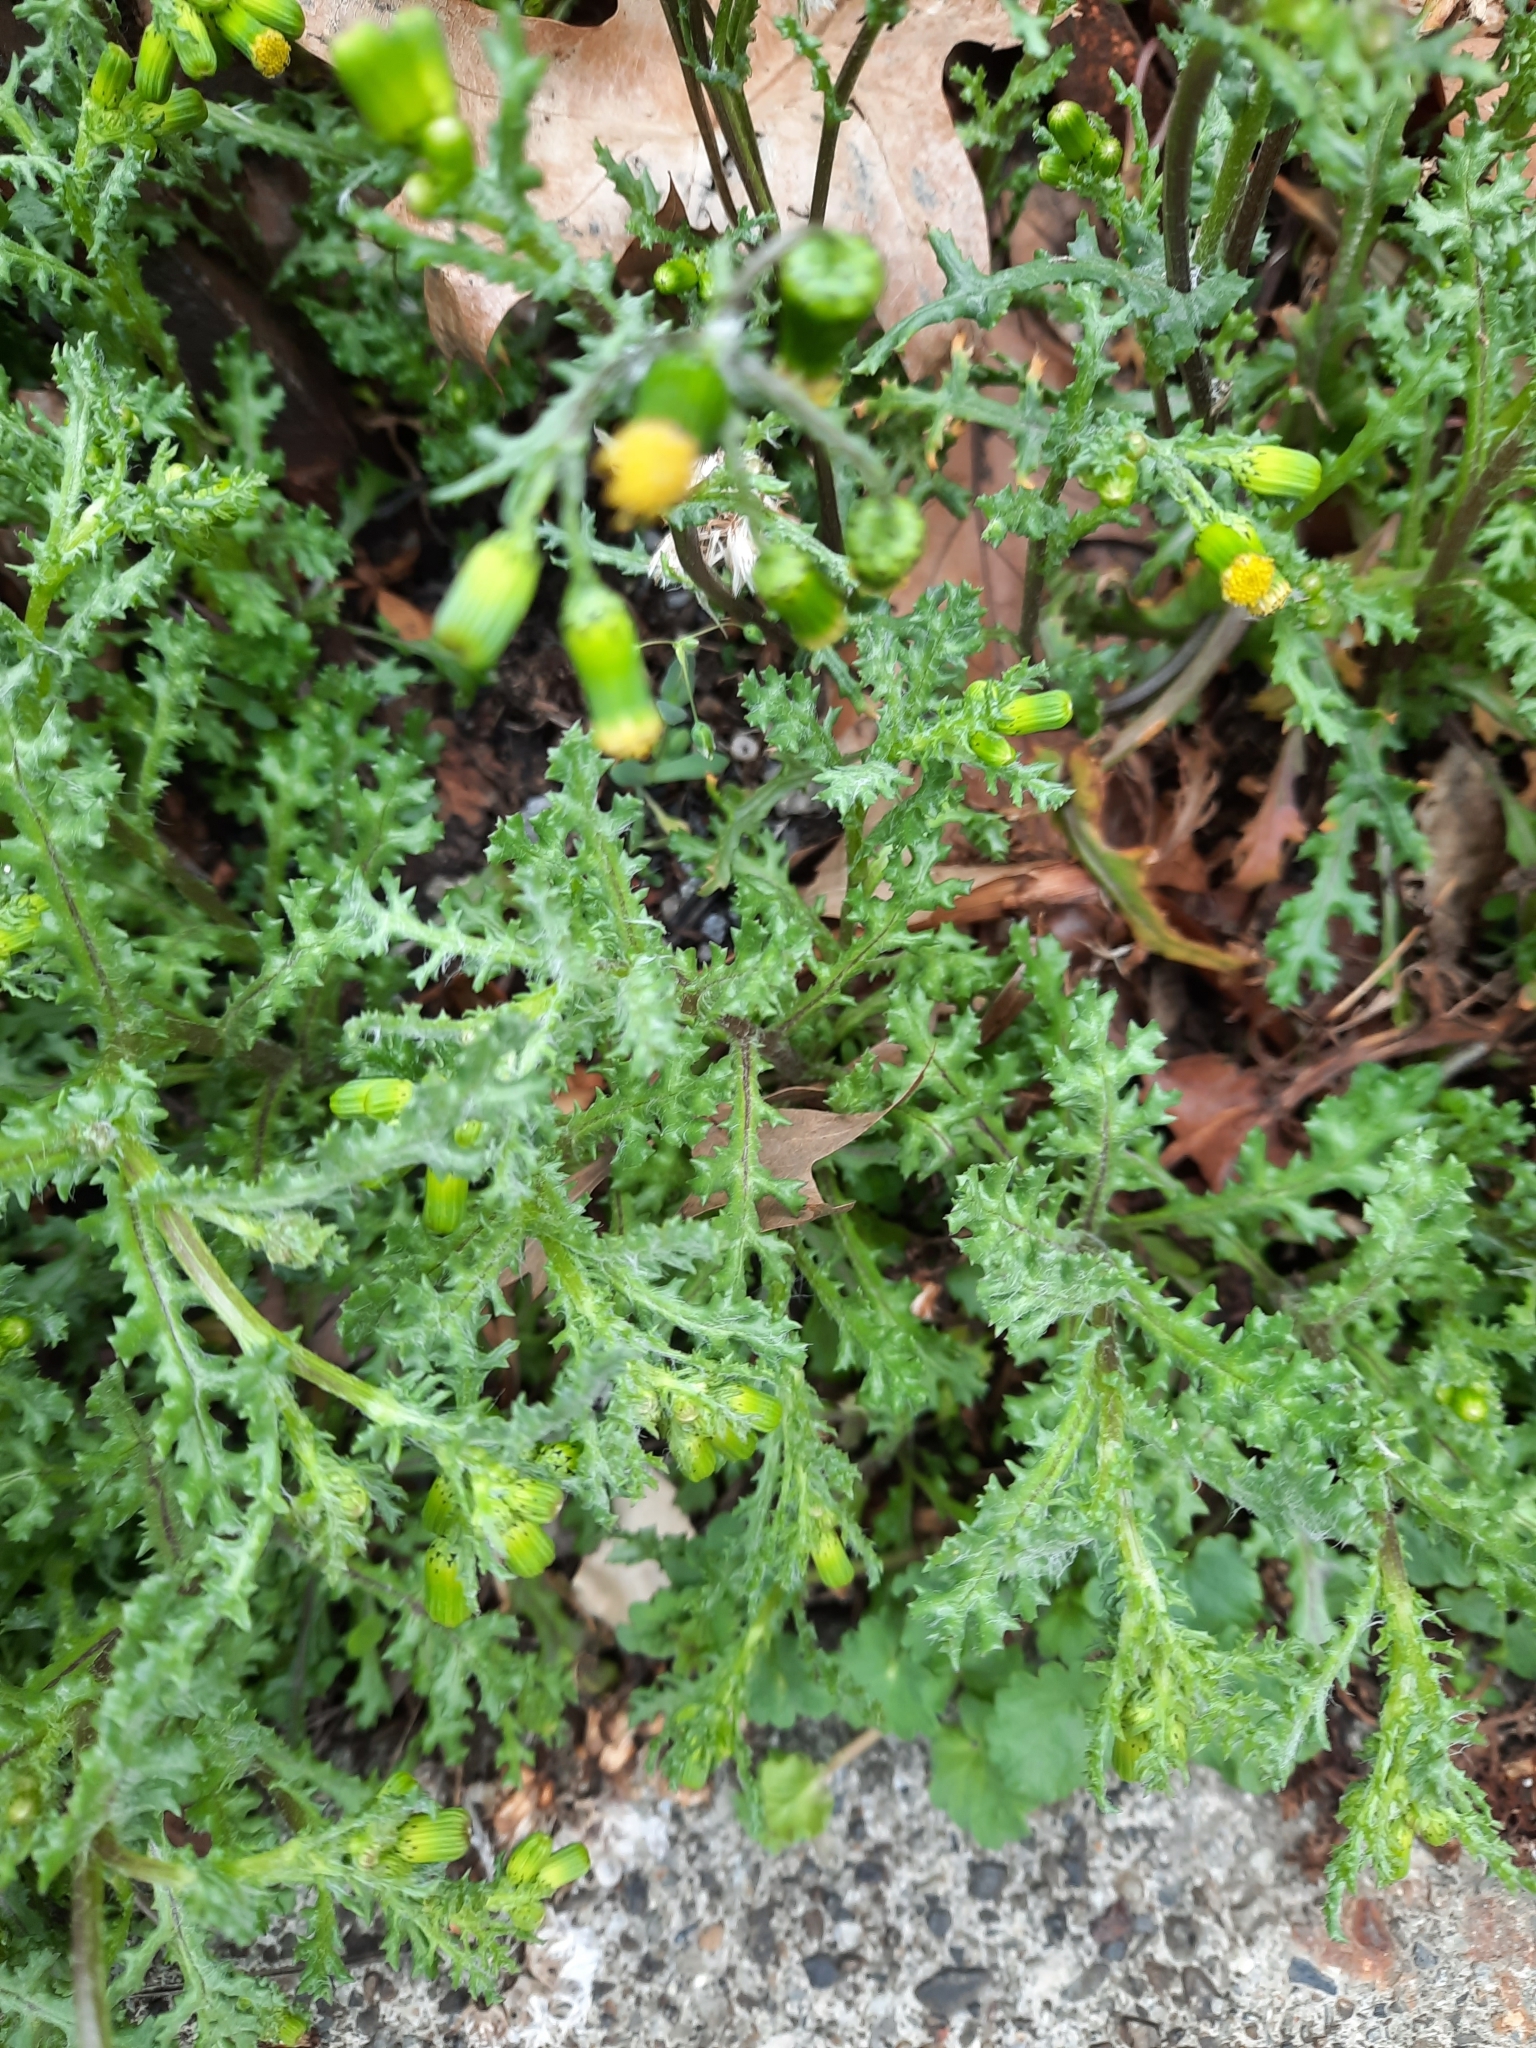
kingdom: Plantae
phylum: Tracheophyta
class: Magnoliopsida
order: Asterales
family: Asteraceae
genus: Senecio
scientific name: Senecio vulgaris
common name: Old-man-in-the-spring
